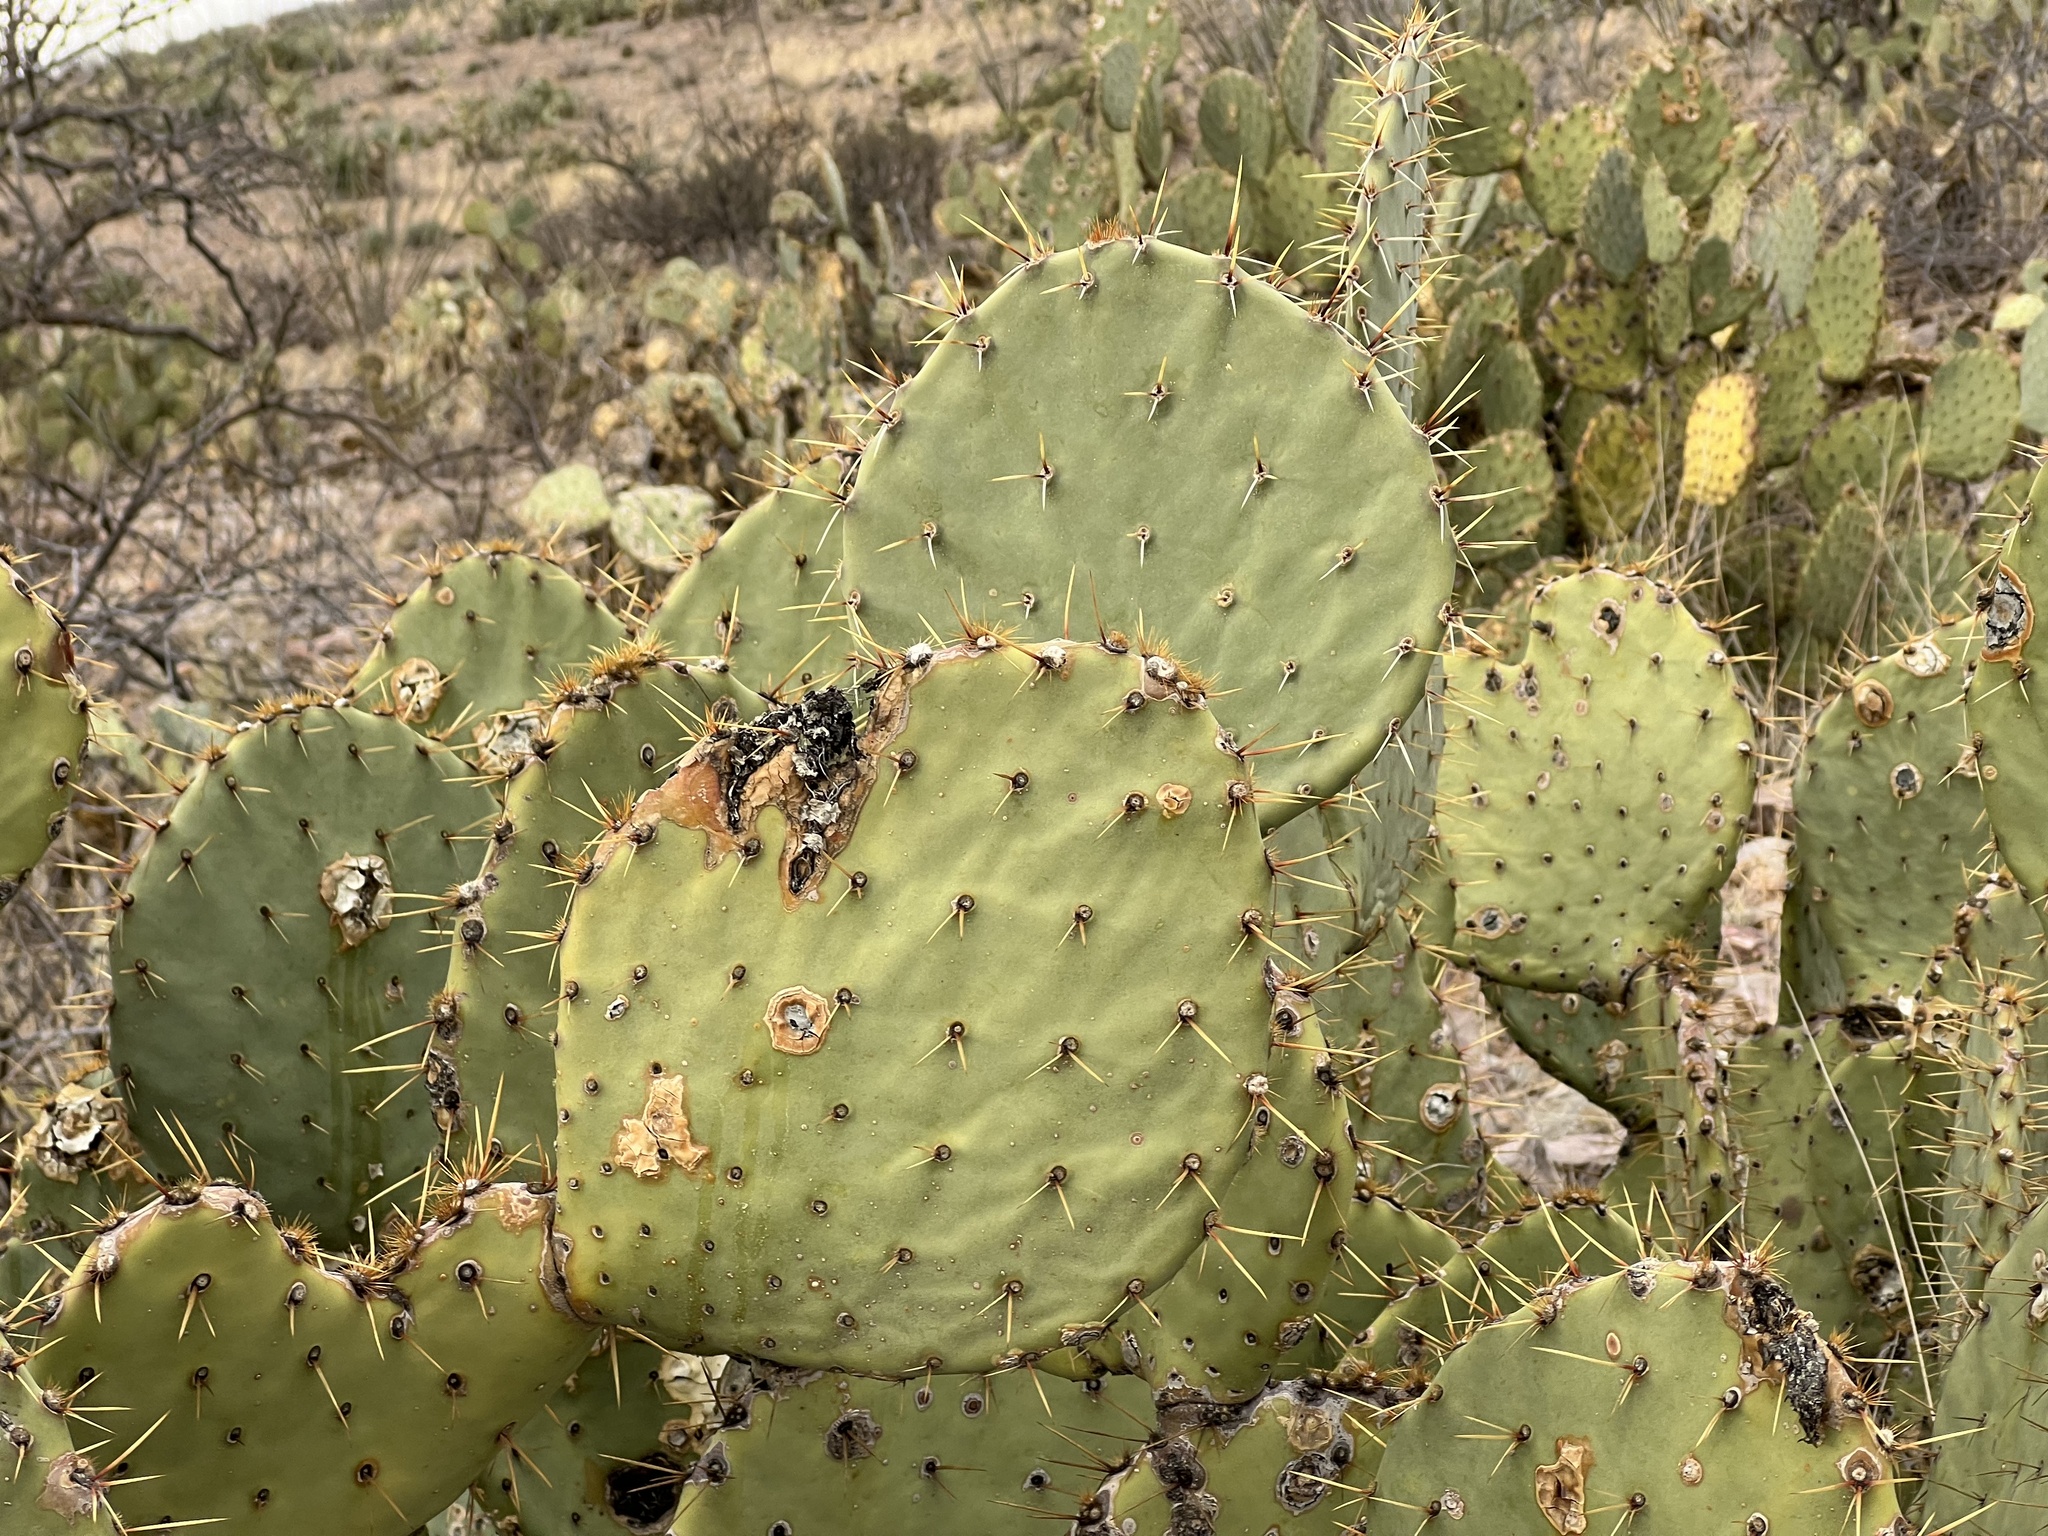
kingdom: Plantae
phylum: Tracheophyta
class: Magnoliopsida
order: Caryophyllales
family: Cactaceae
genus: Opuntia
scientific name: Opuntia engelmannii
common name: Cactus-apple
